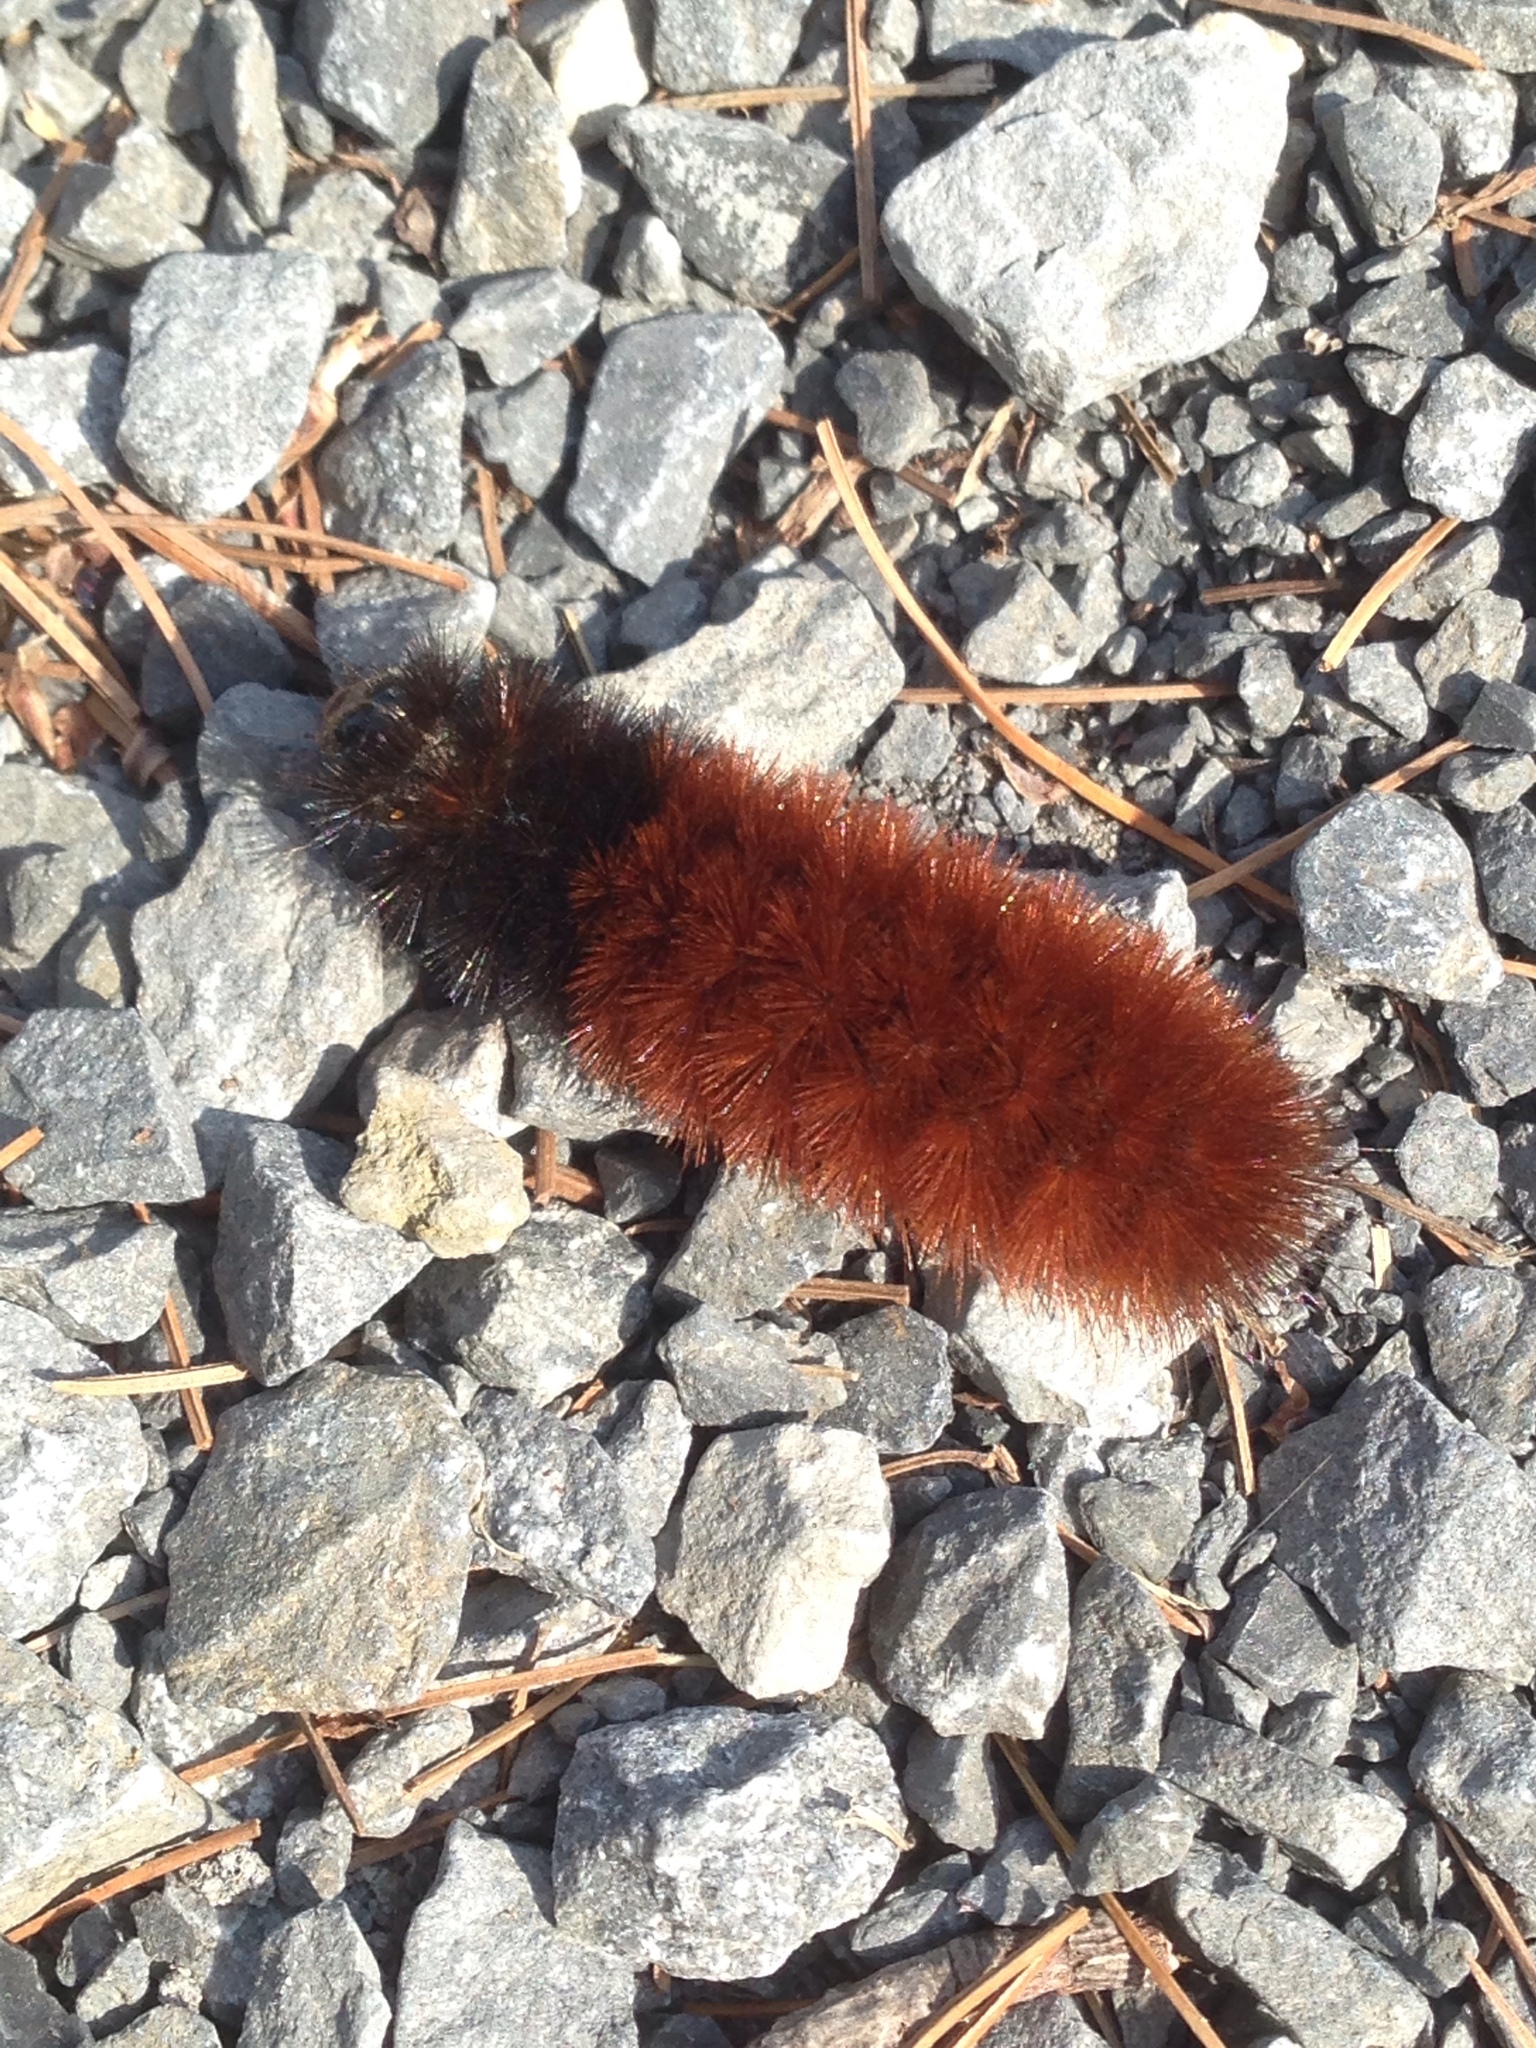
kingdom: Animalia
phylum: Arthropoda
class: Insecta
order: Lepidoptera
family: Erebidae
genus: Pyrrharctia
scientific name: Pyrrharctia isabella
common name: Isabella tiger moth
